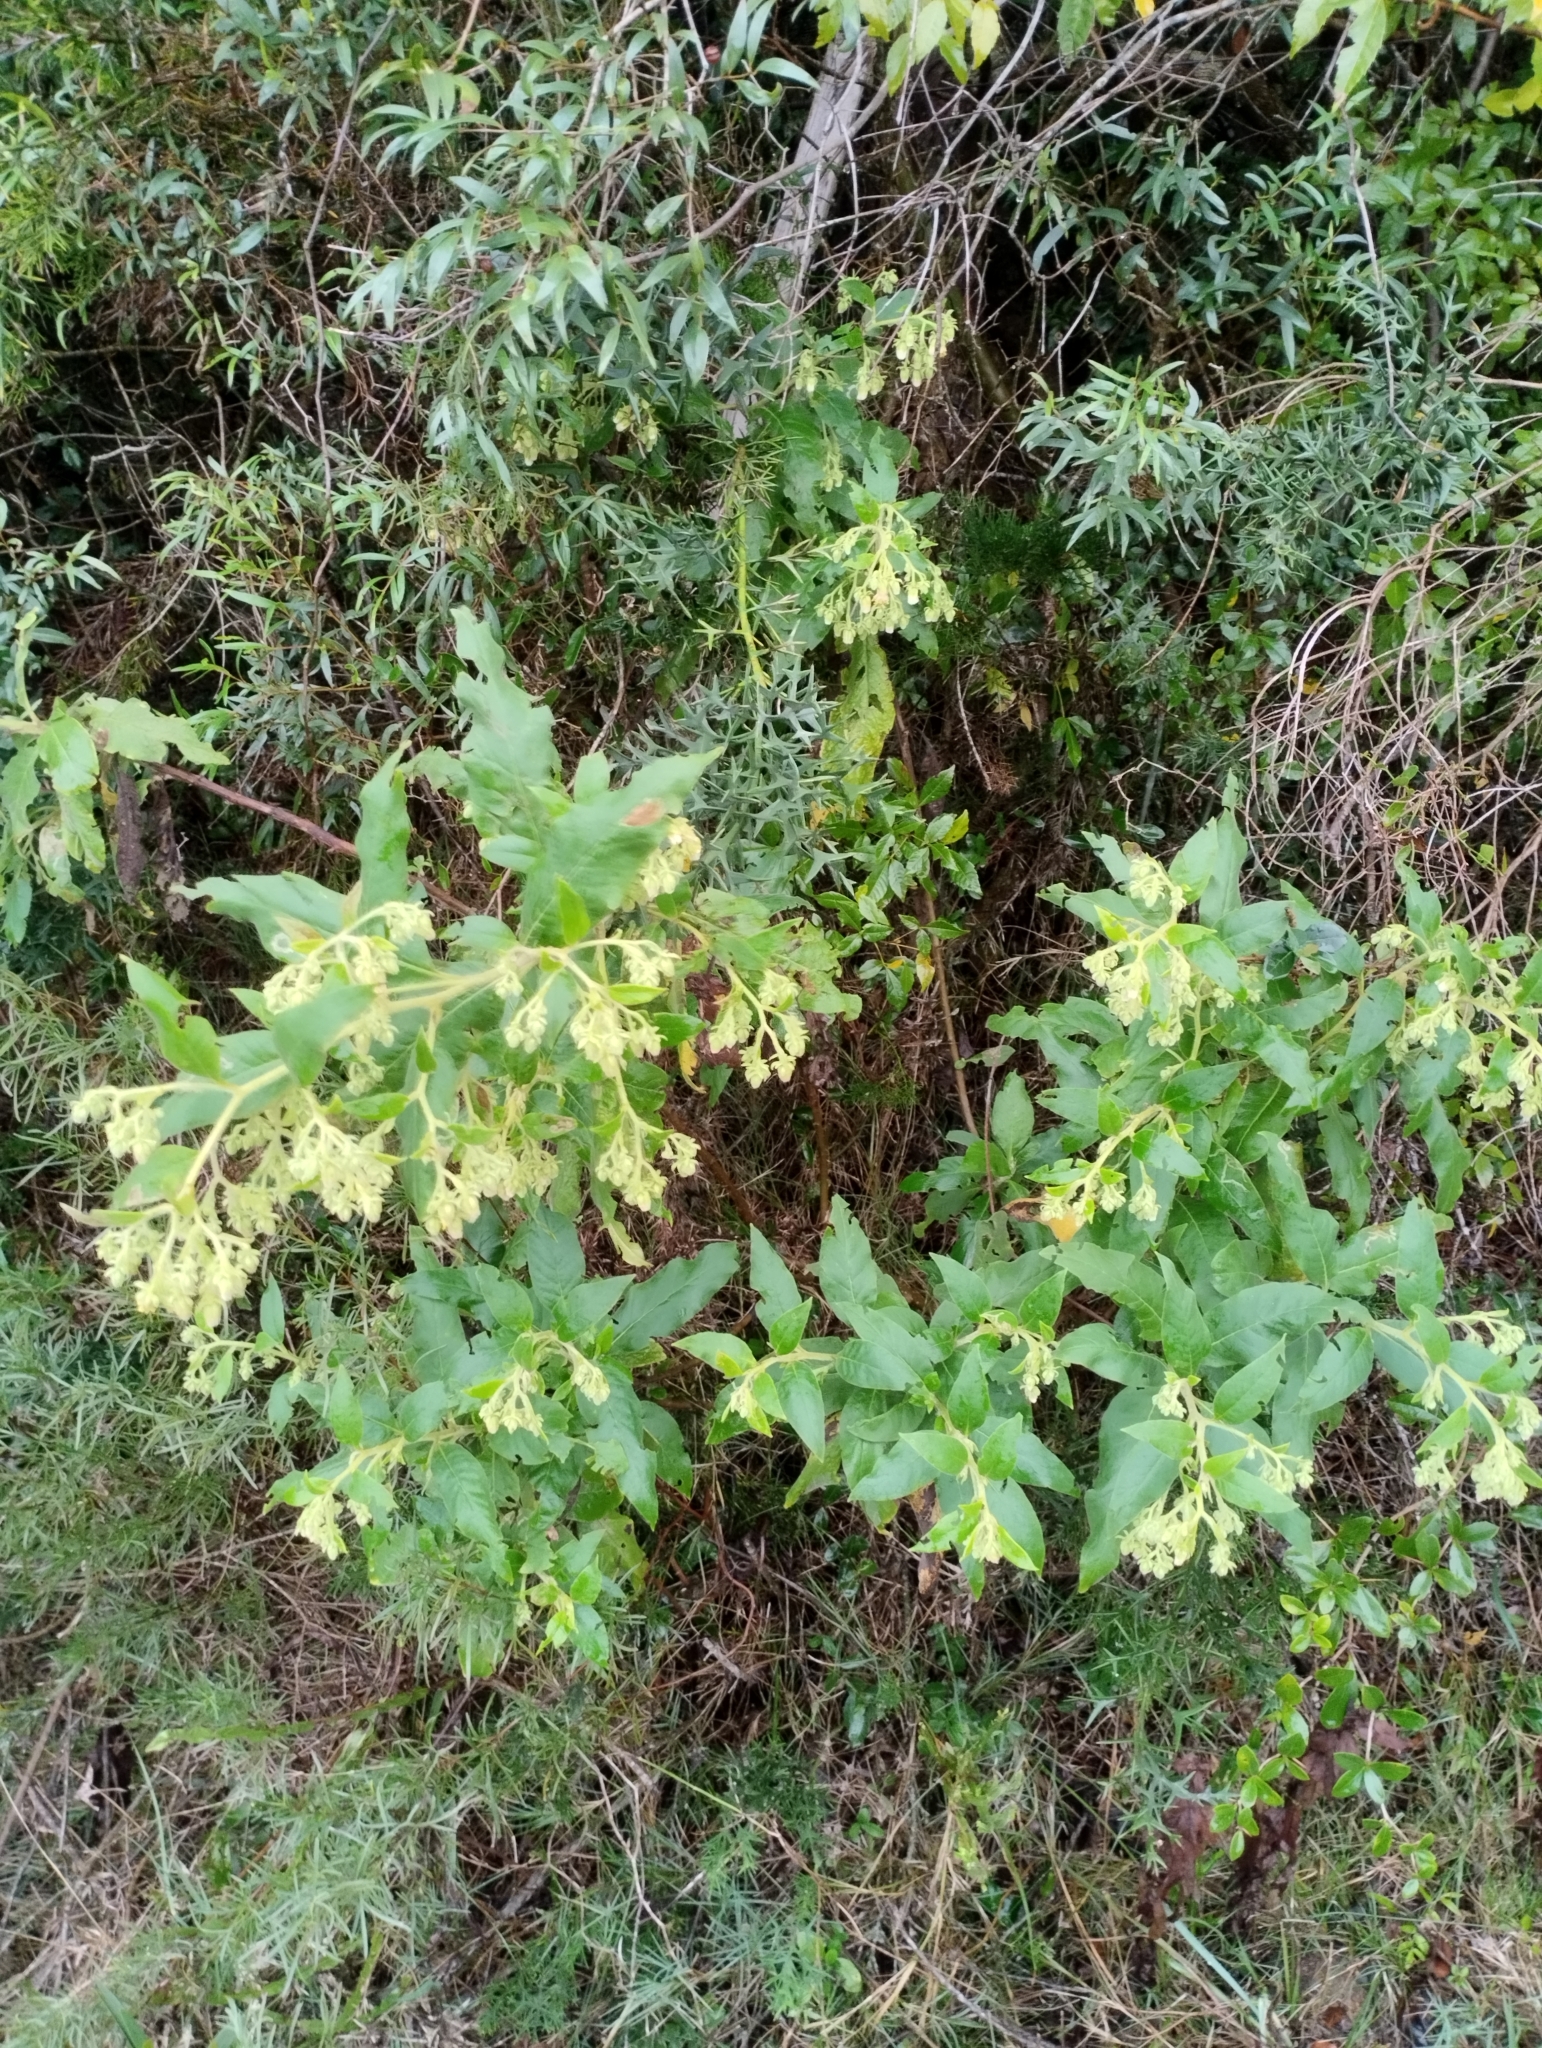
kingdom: Plantae
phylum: Tracheophyta
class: Magnoliopsida
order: Asterales
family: Asteraceae
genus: Trixis
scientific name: Trixis praestans
